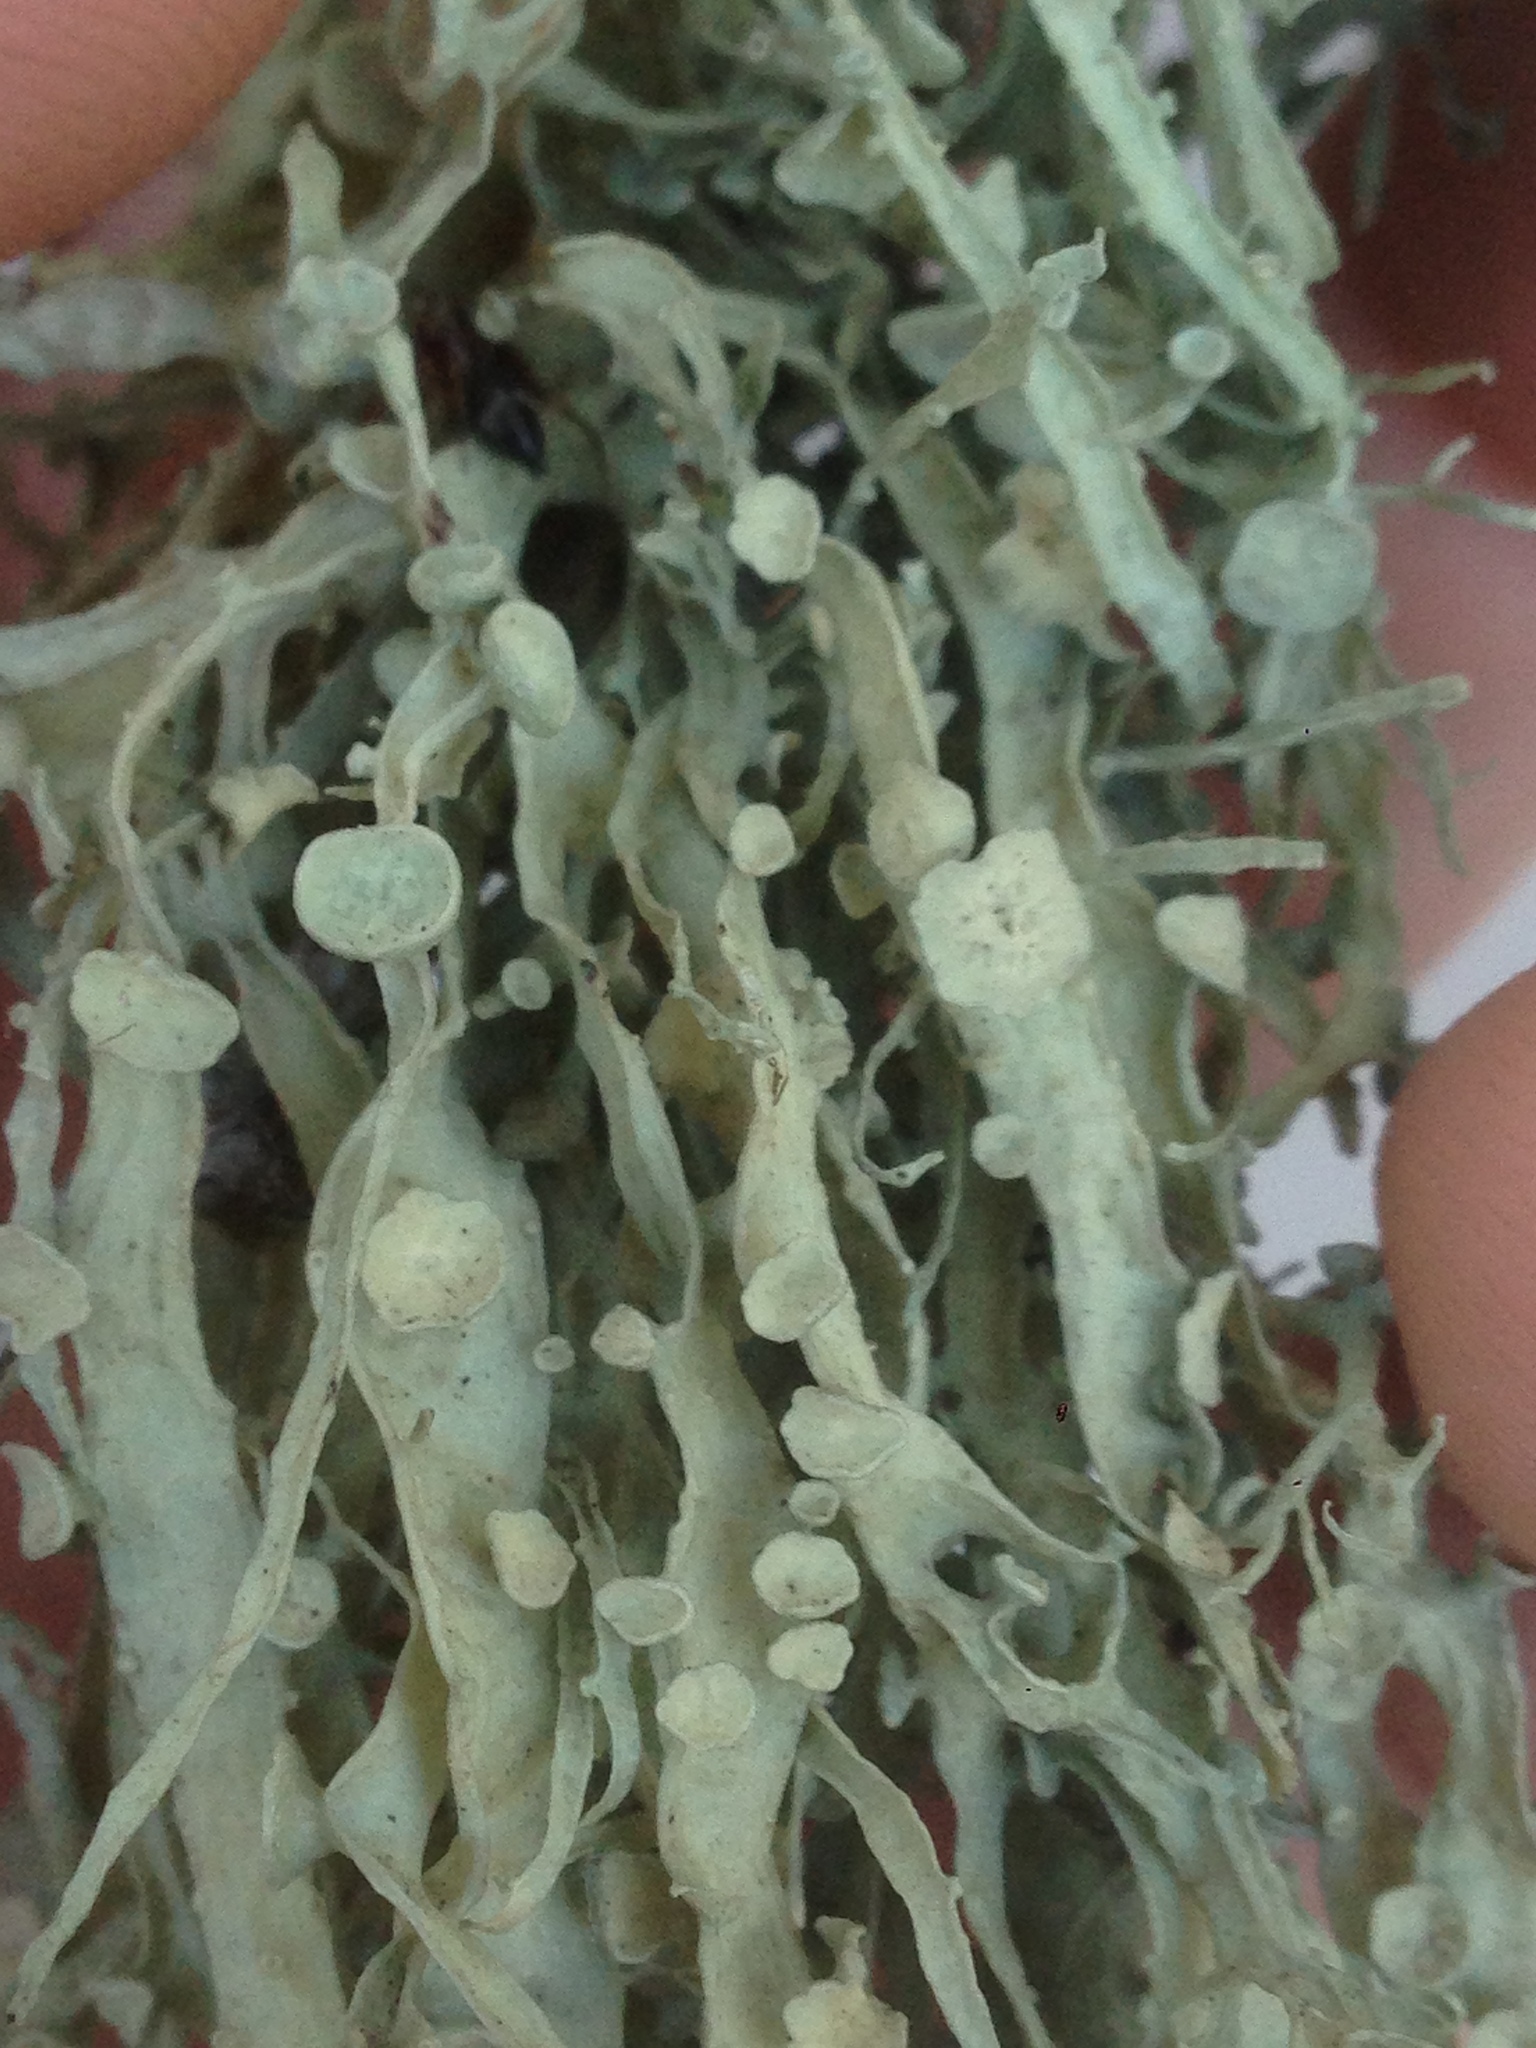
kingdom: Fungi
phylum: Ascomycota
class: Lecanoromycetes
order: Lecanorales
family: Ramalinaceae
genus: Ramalina
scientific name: Ramalina leptocarpha
